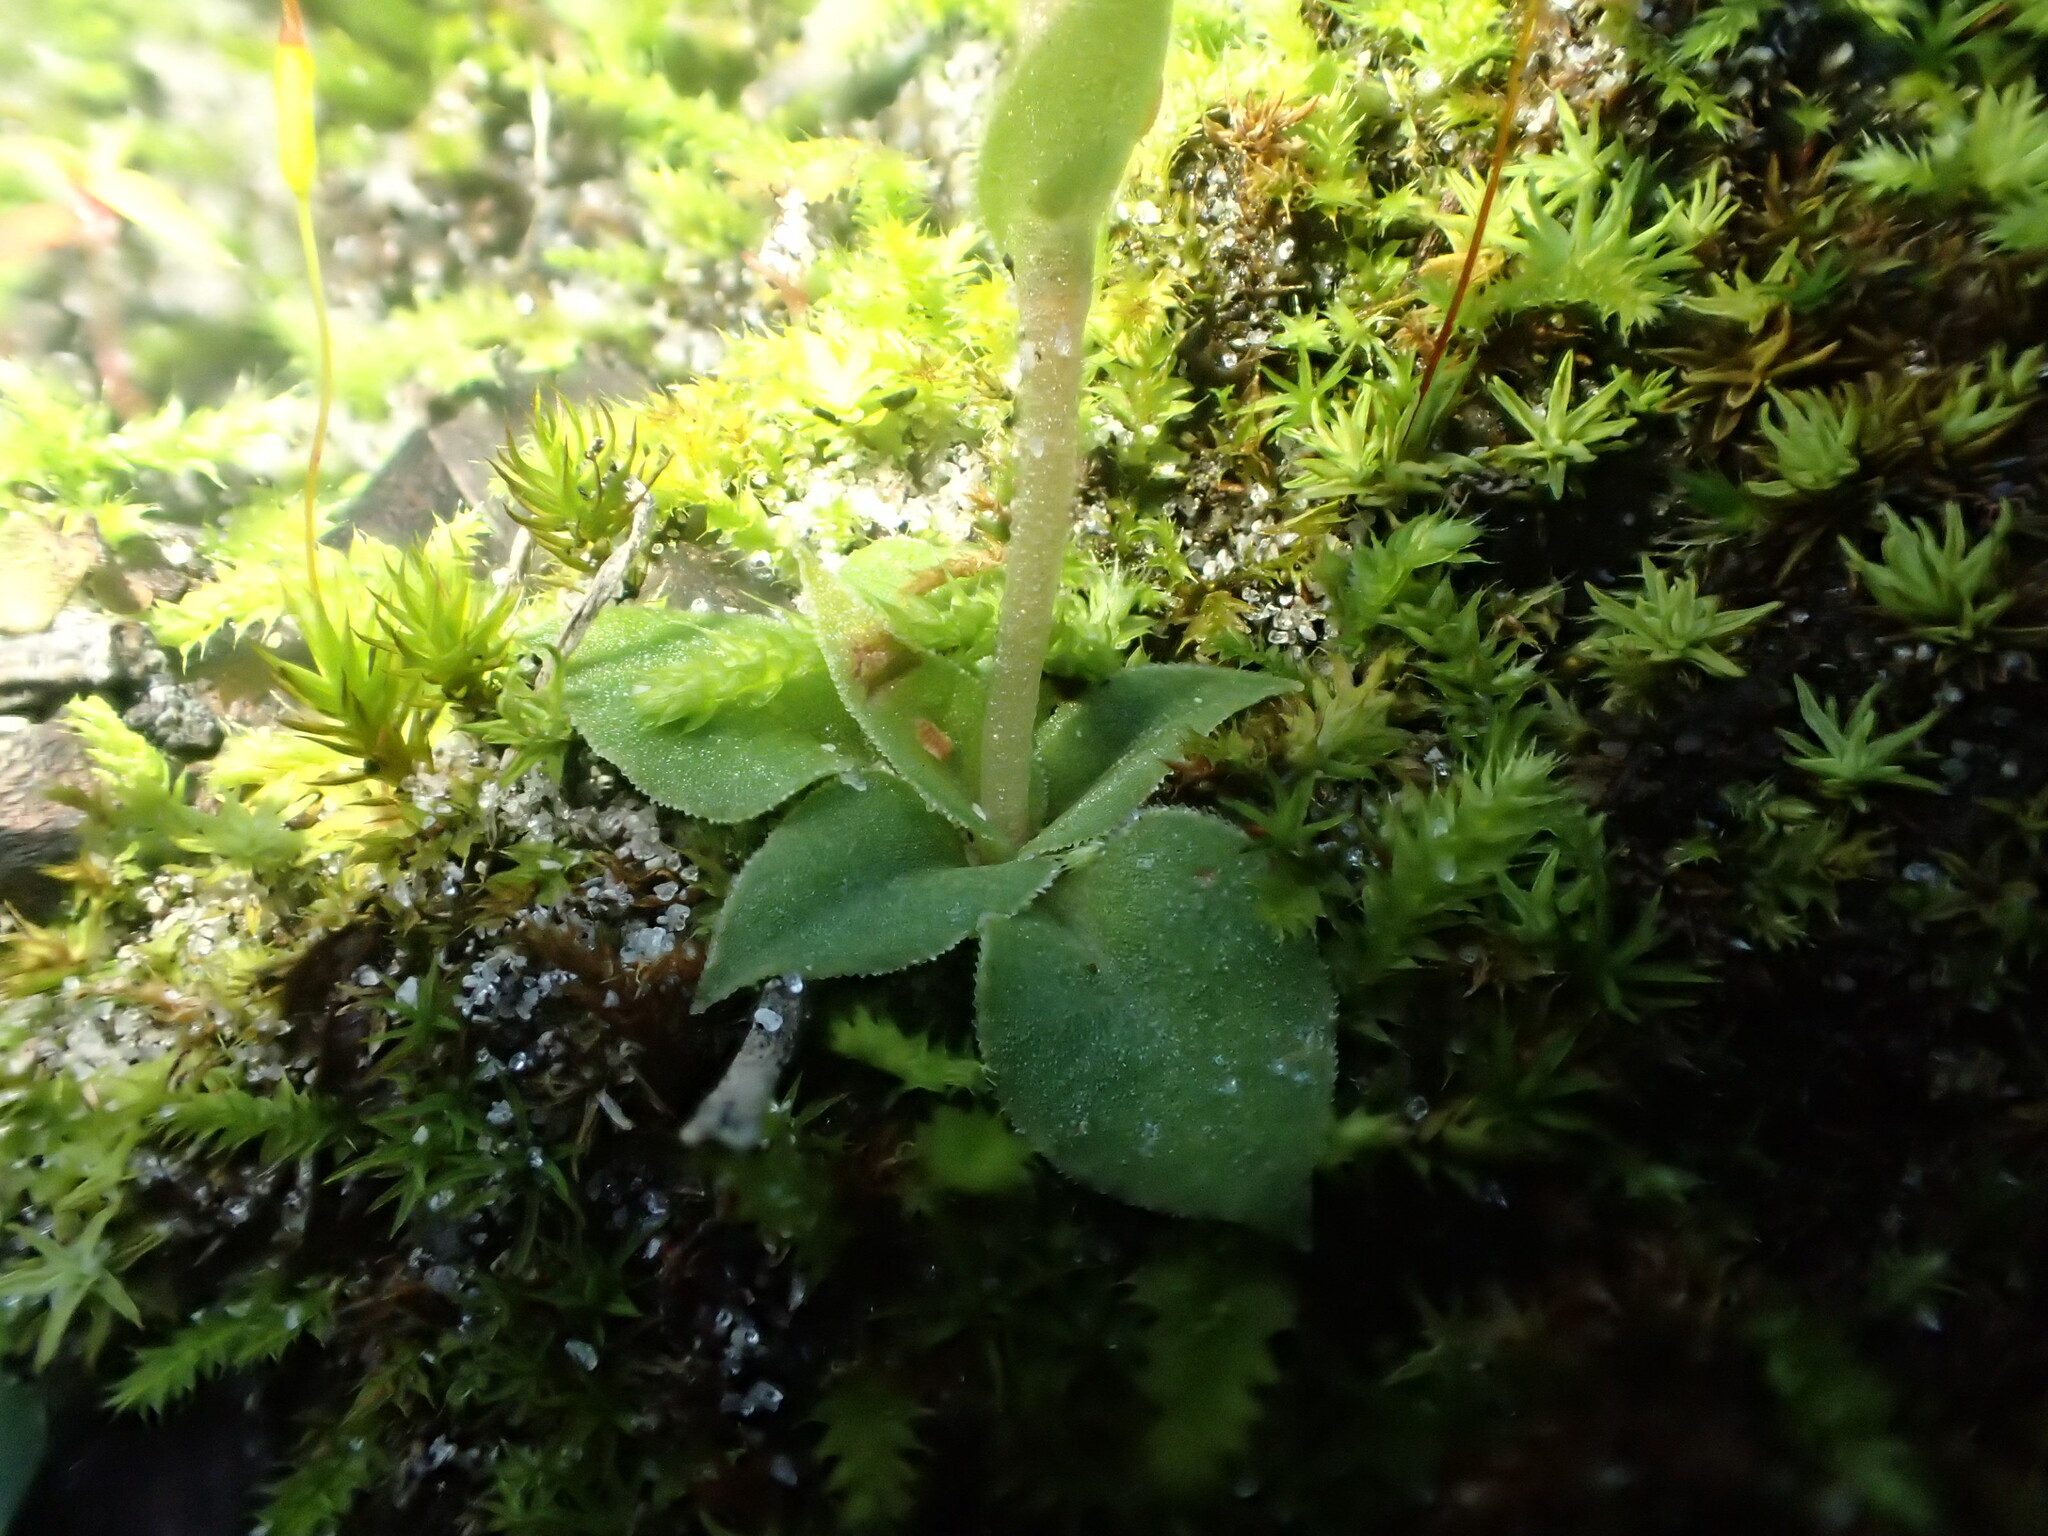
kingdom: Plantae
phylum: Tracheophyta
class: Liliopsida
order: Asparagales
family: Orchidaceae
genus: Pterostylis
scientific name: Pterostylis actites
